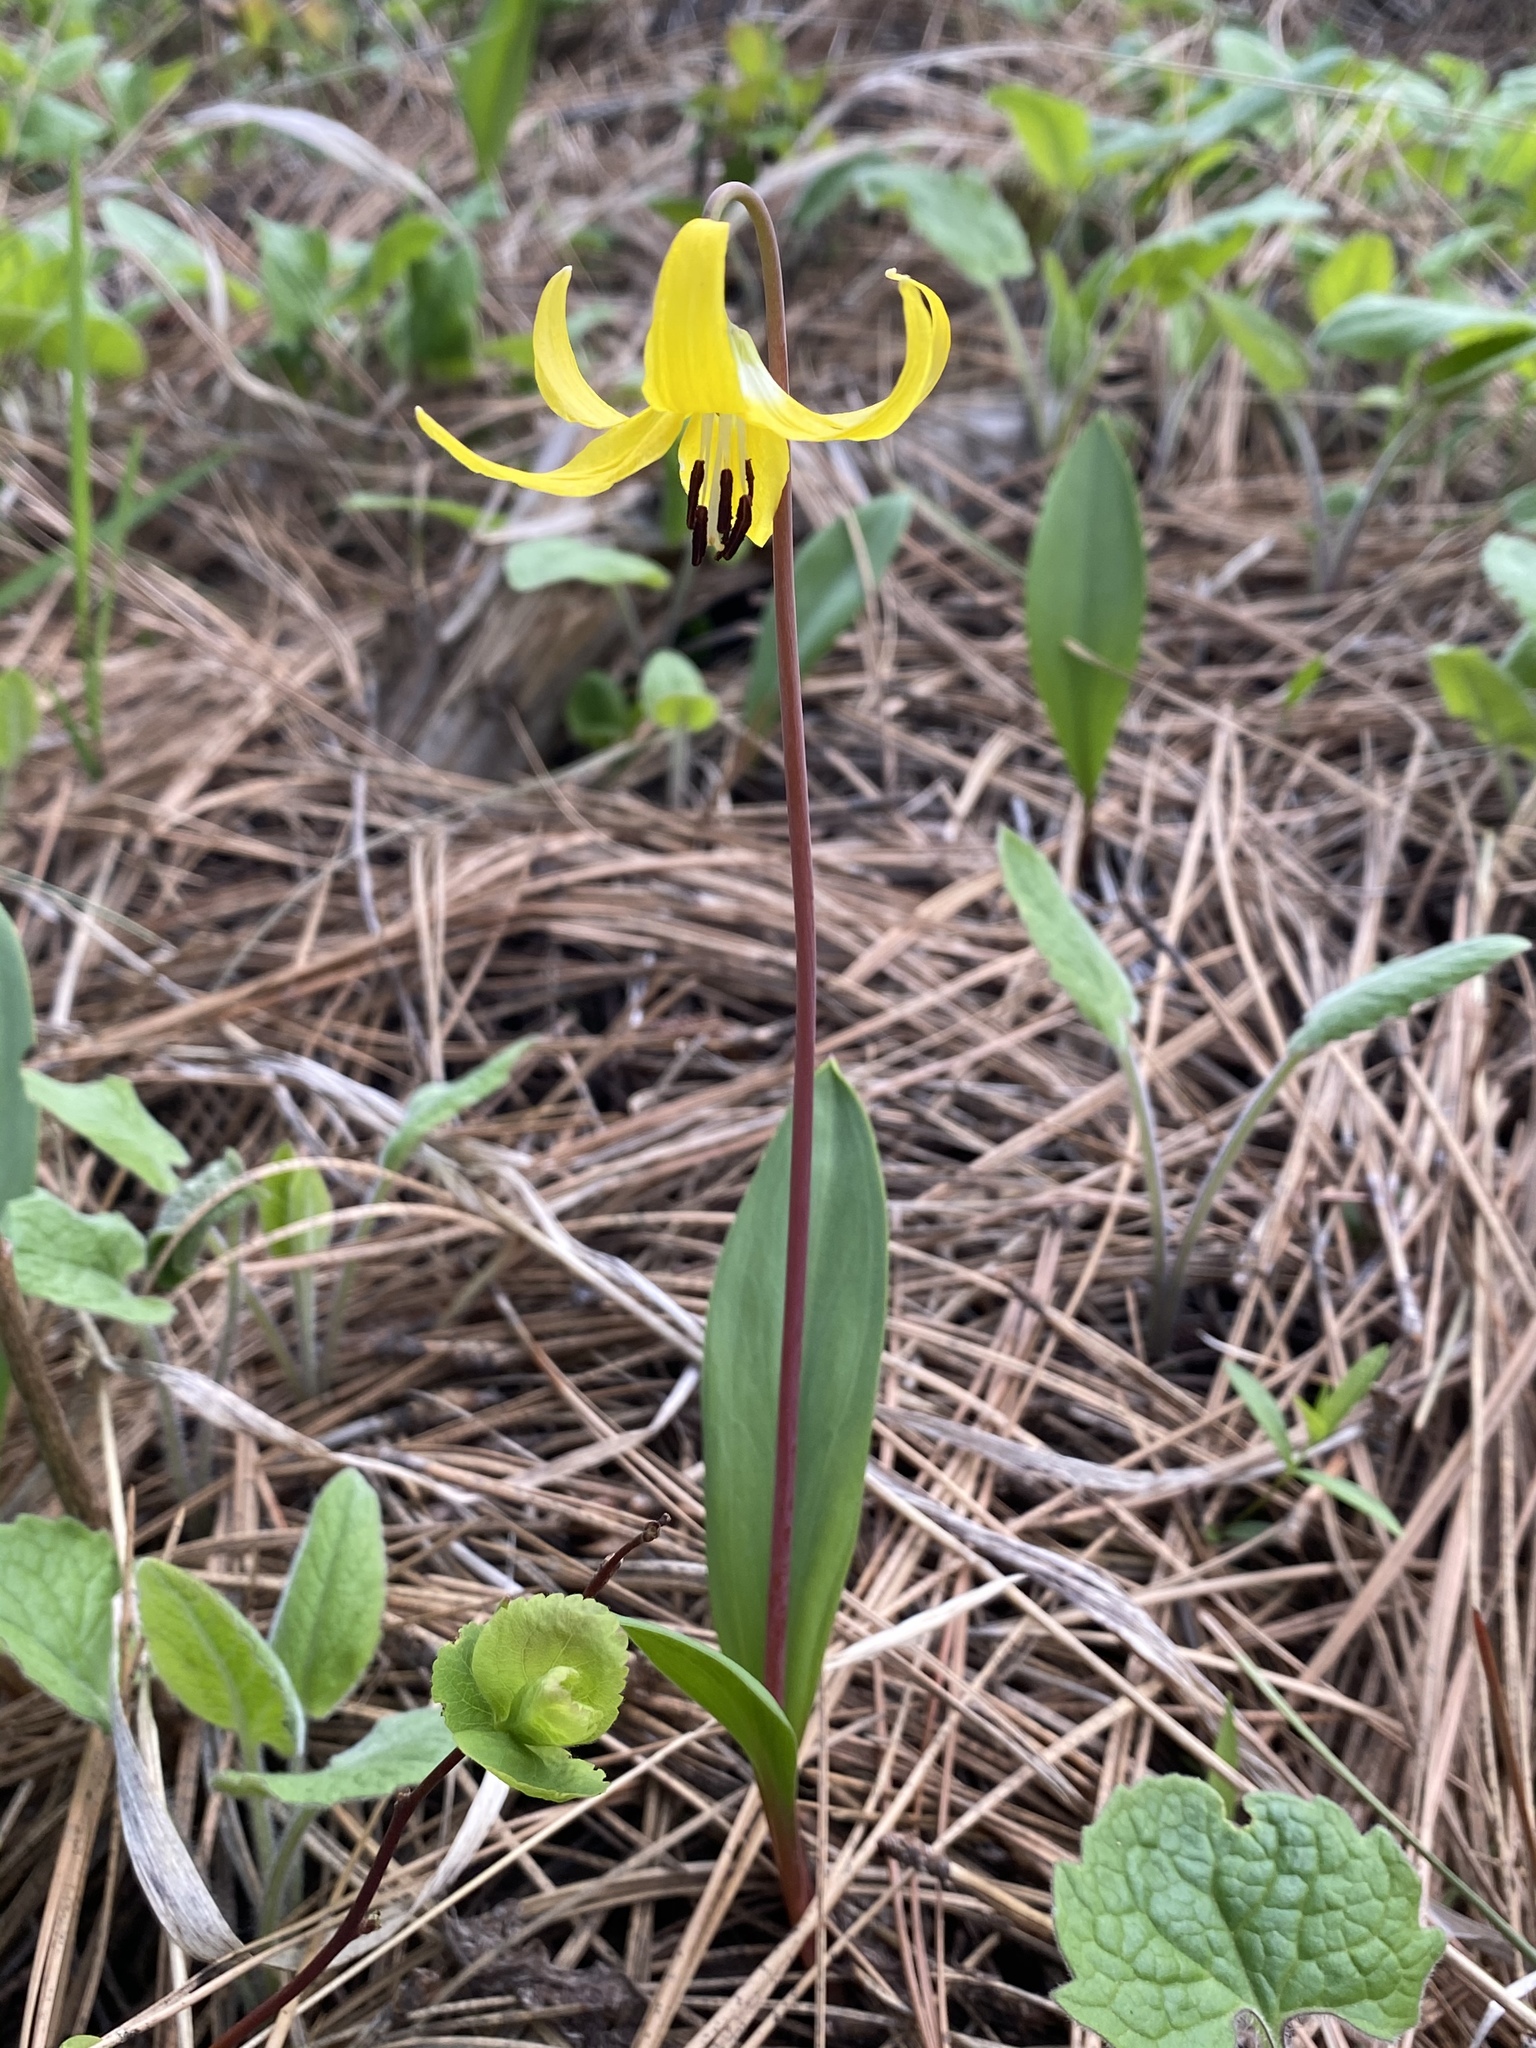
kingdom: Plantae
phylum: Tracheophyta
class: Liliopsida
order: Liliales
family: Liliaceae
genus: Erythronium
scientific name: Erythronium grandiflorum
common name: Avalanche-lily
